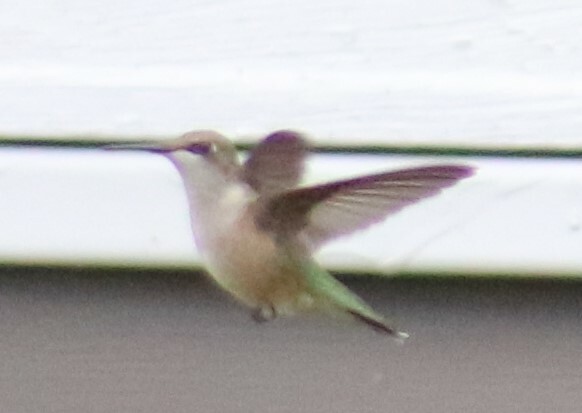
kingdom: Animalia
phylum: Chordata
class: Aves
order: Apodiformes
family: Trochilidae
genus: Archilochus
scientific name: Archilochus colubris
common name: Ruby-throated hummingbird
